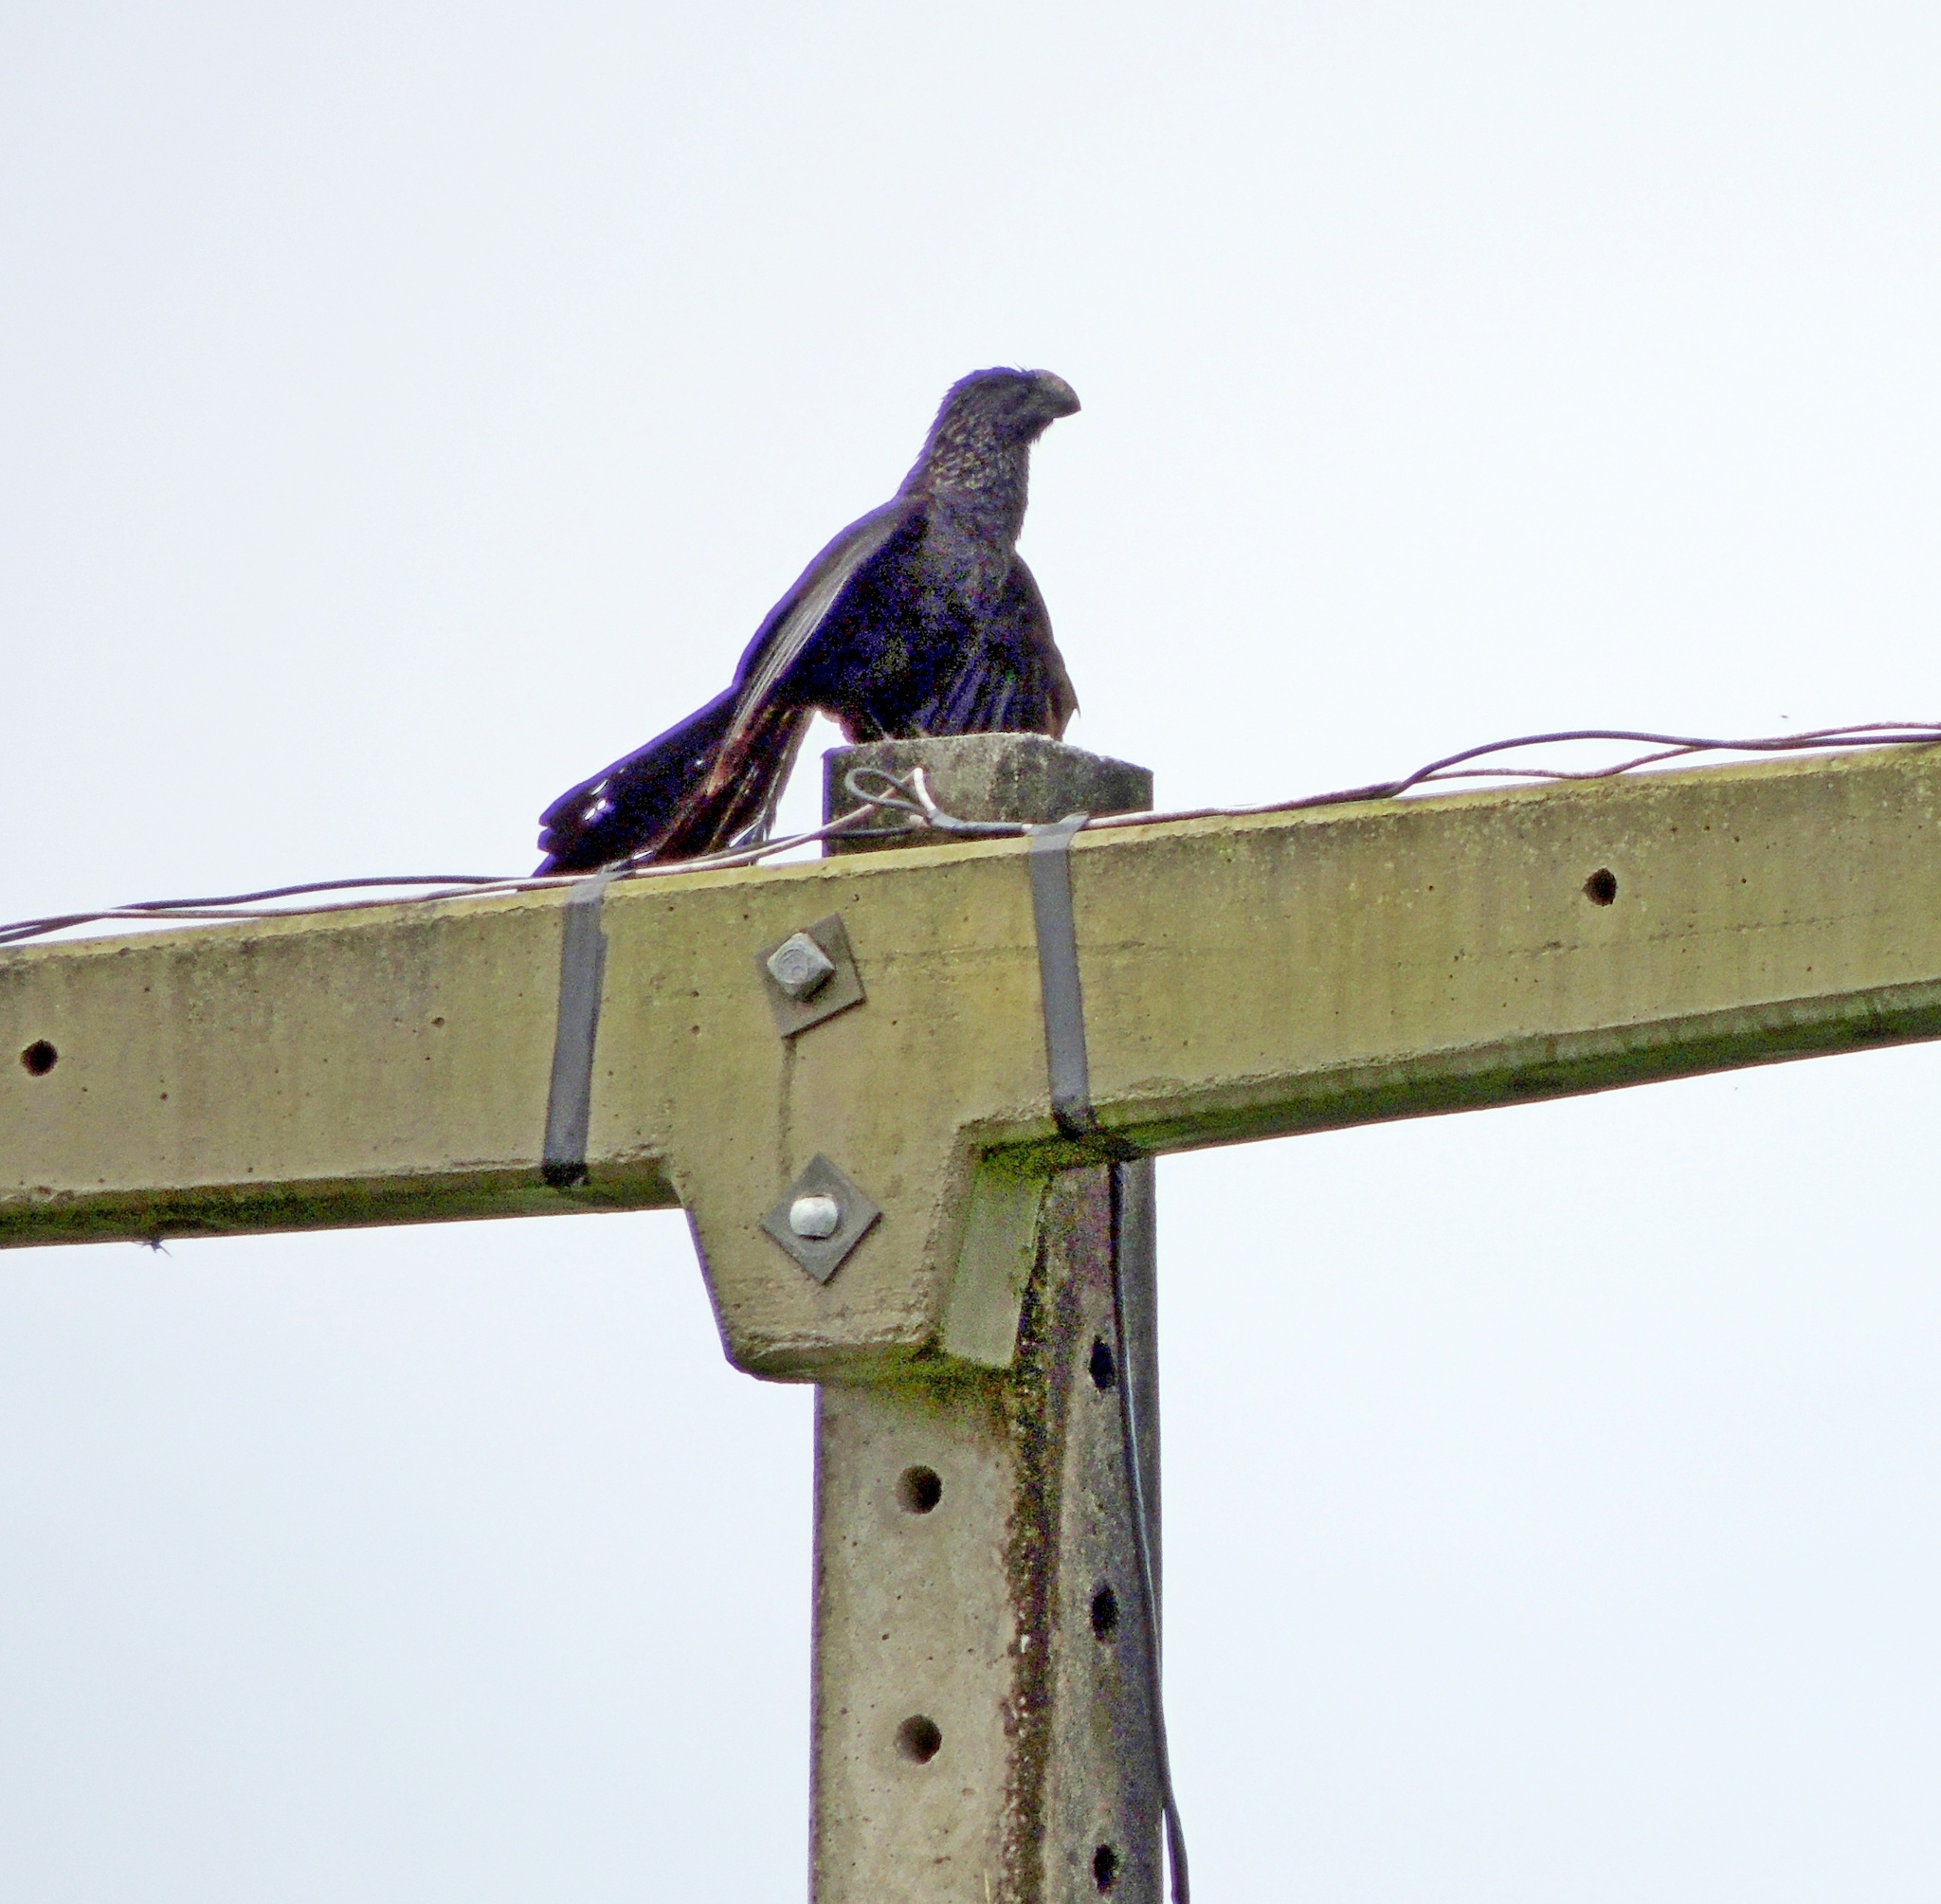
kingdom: Animalia
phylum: Chordata
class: Aves
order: Cuculiformes
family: Cuculidae
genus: Crotophaga
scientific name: Crotophaga ani
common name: Smooth-billed ani
